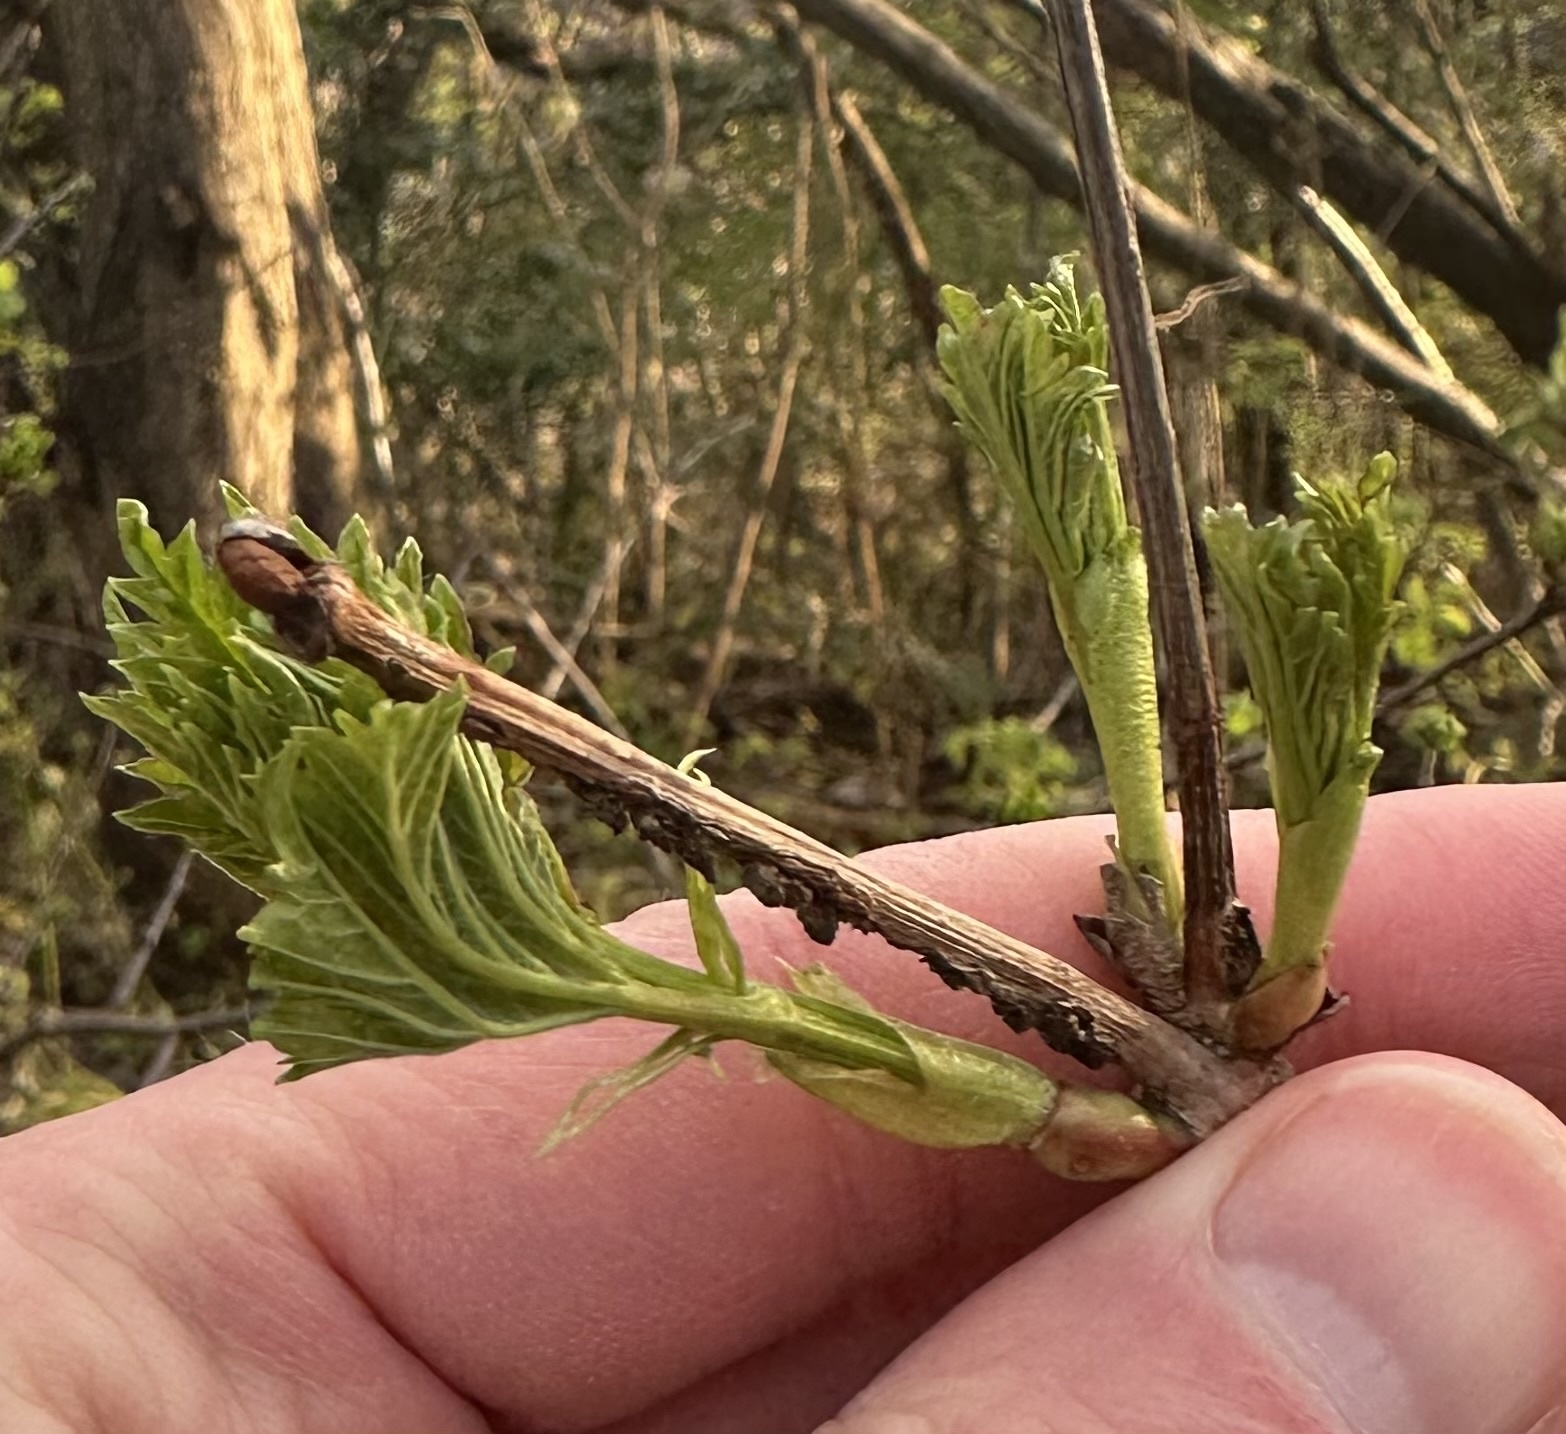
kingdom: Plantae
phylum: Tracheophyta
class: Magnoliopsida
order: Dipsacales
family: Viburnaceae
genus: Sambucus
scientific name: Sambucus nigra
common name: Elder
